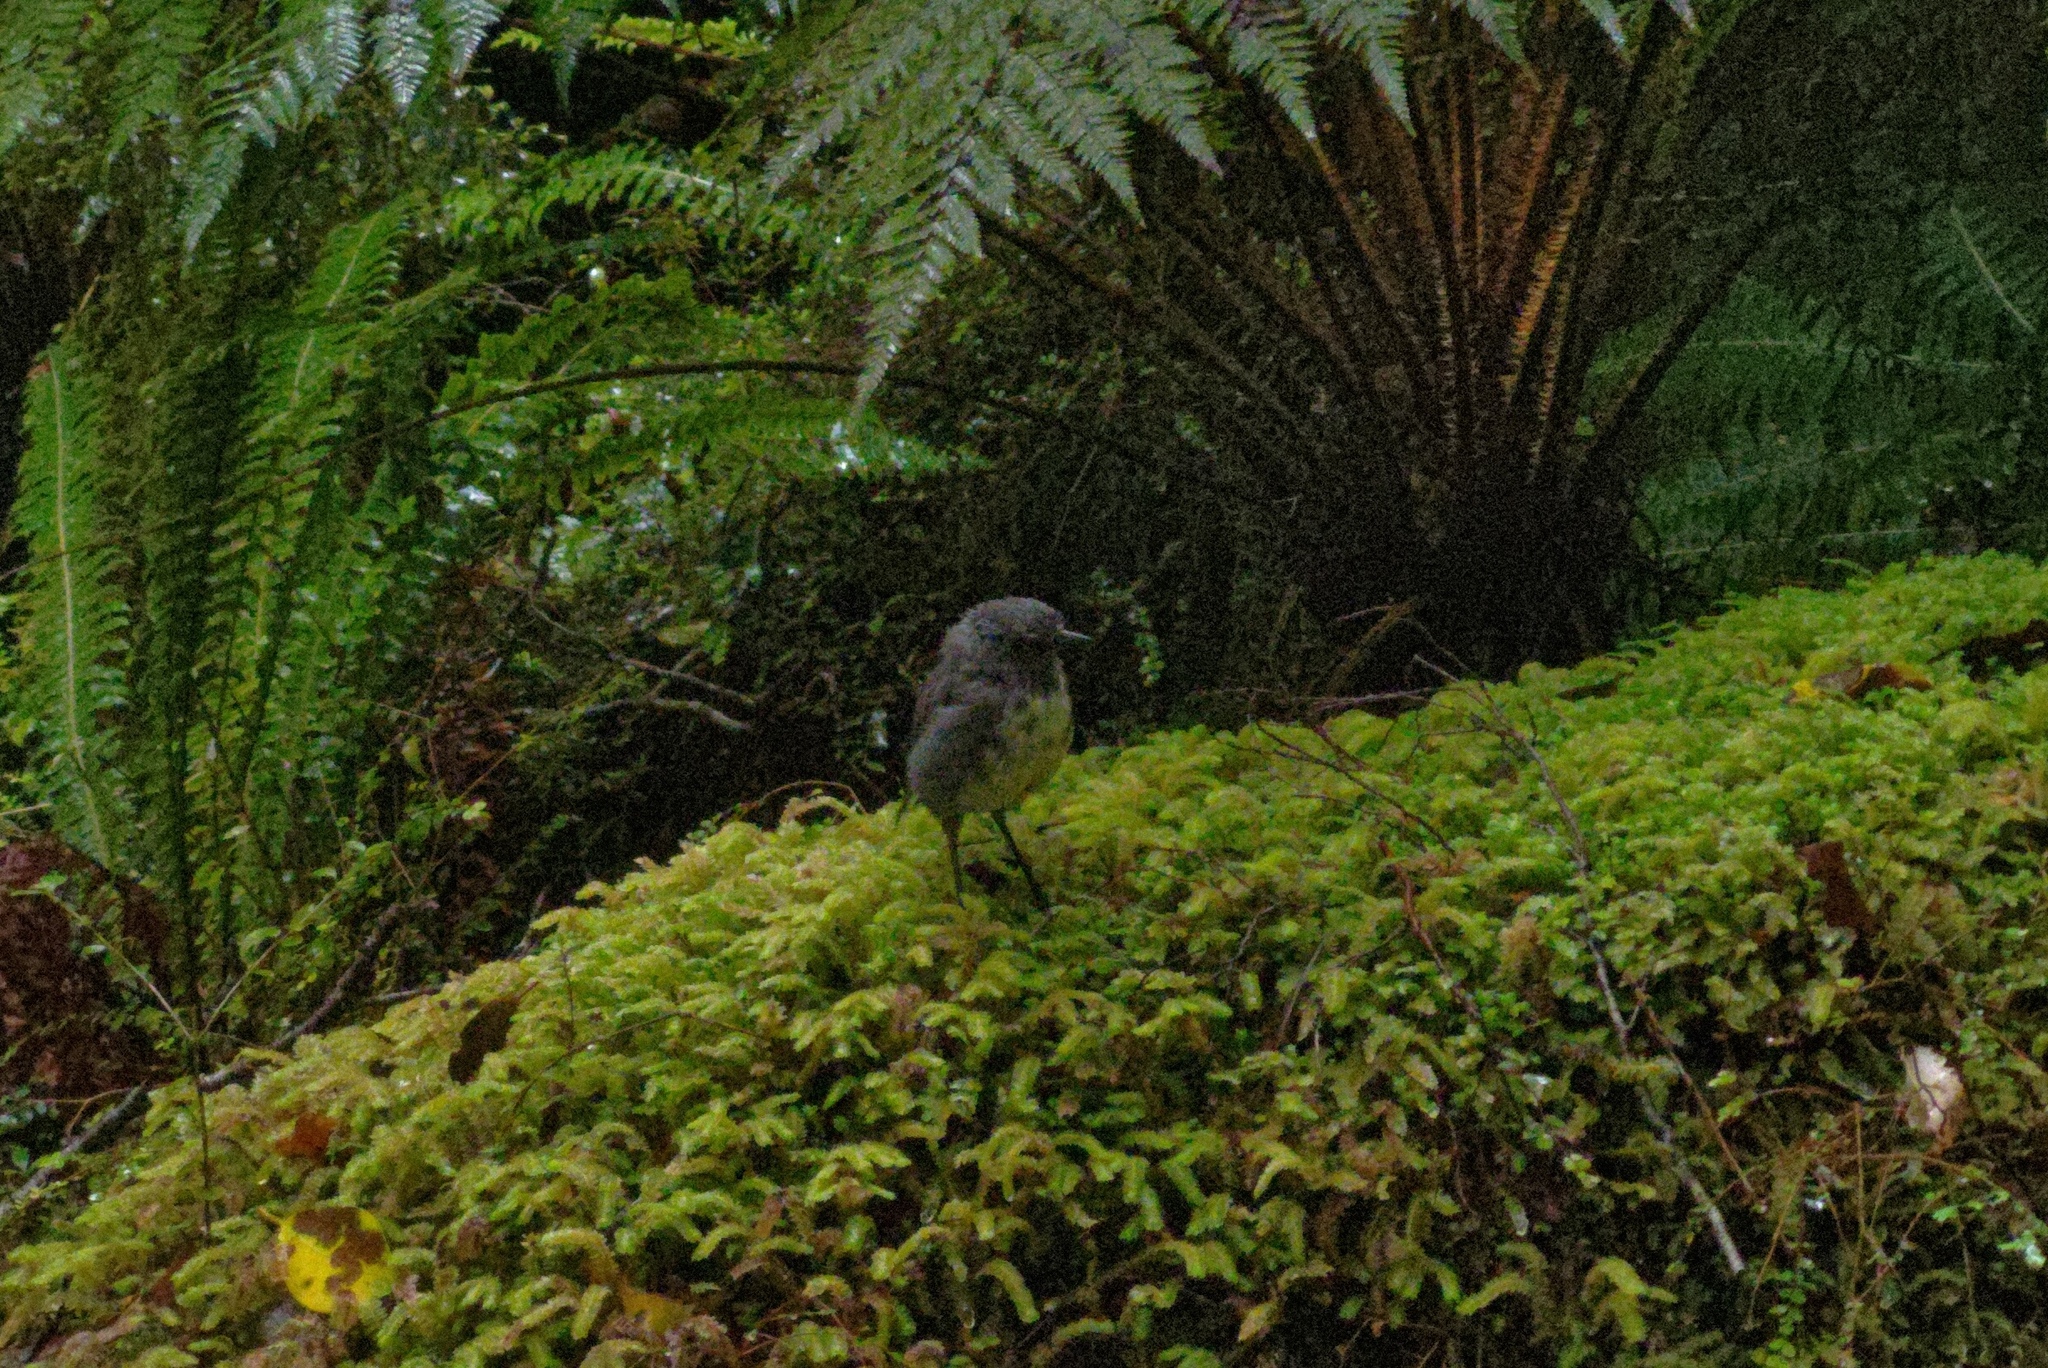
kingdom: Animalia
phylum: Chordata
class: Aves
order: Passeriformes
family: Petroicidae
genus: Petroica
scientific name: Petroica australis
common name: New zealand robin
